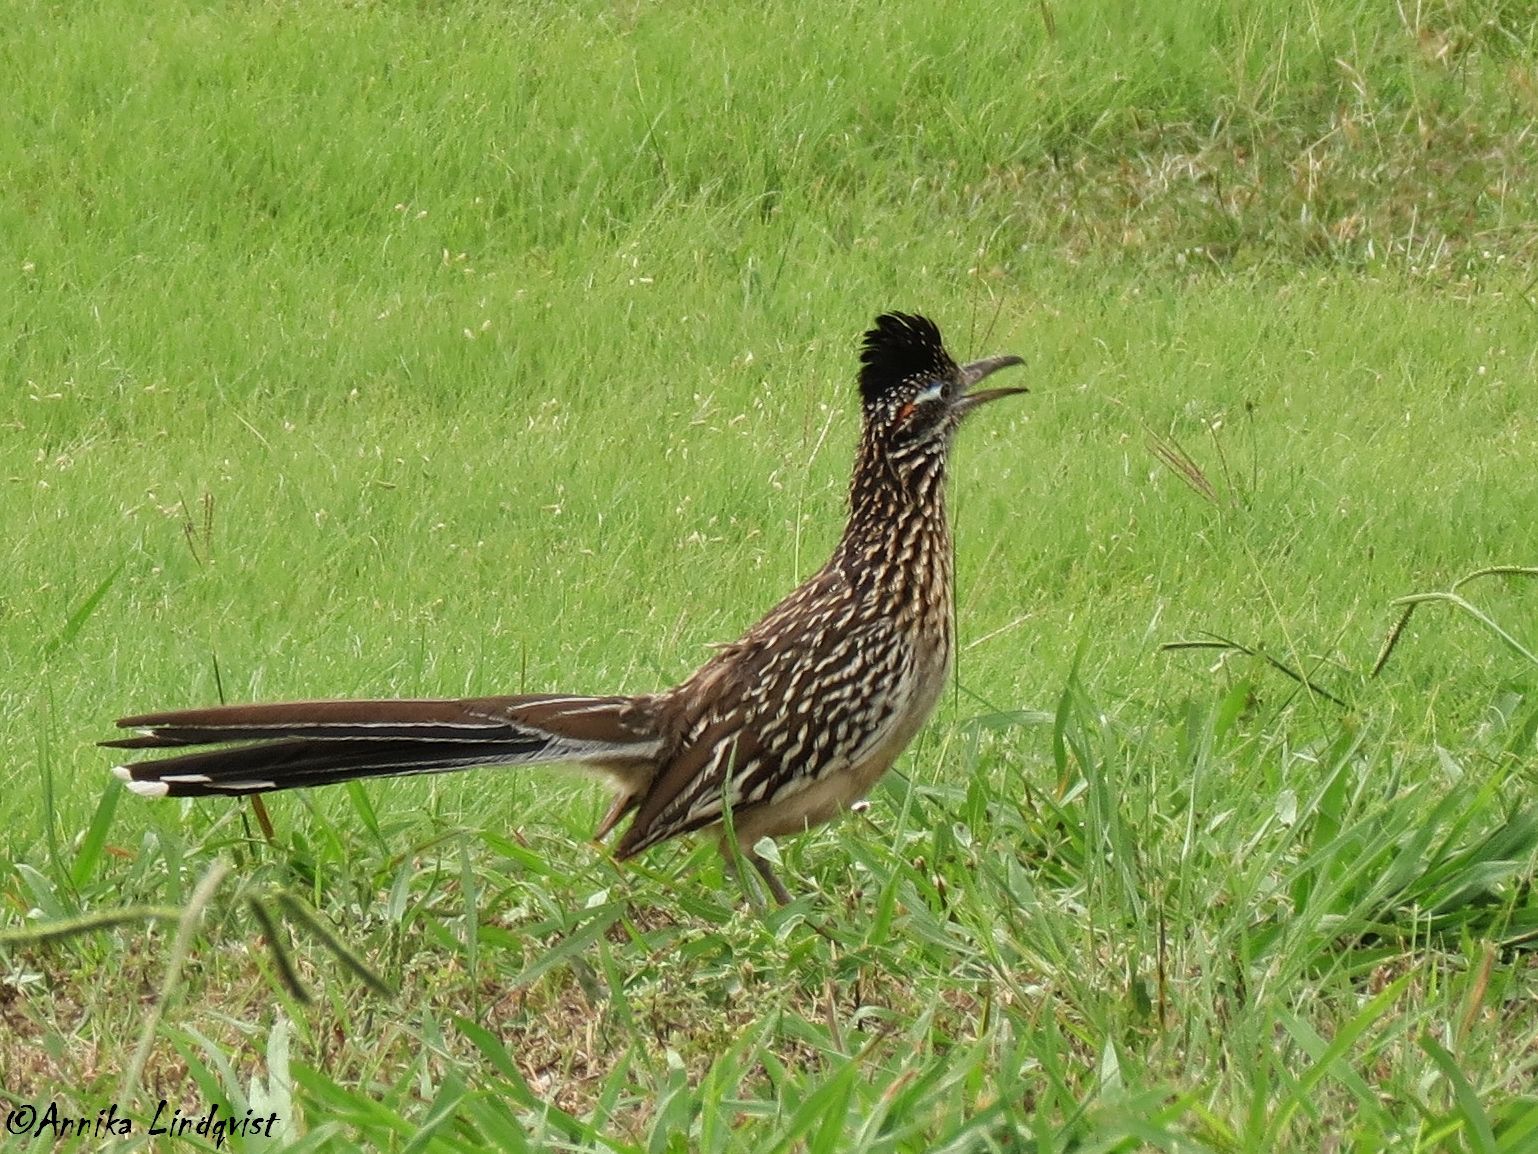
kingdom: Animalia
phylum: Chordata
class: Aves
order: Cuculiformes
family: Cuculidae
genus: Geococcyx
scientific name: Geococcyx californianus
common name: Greater roadrunner
